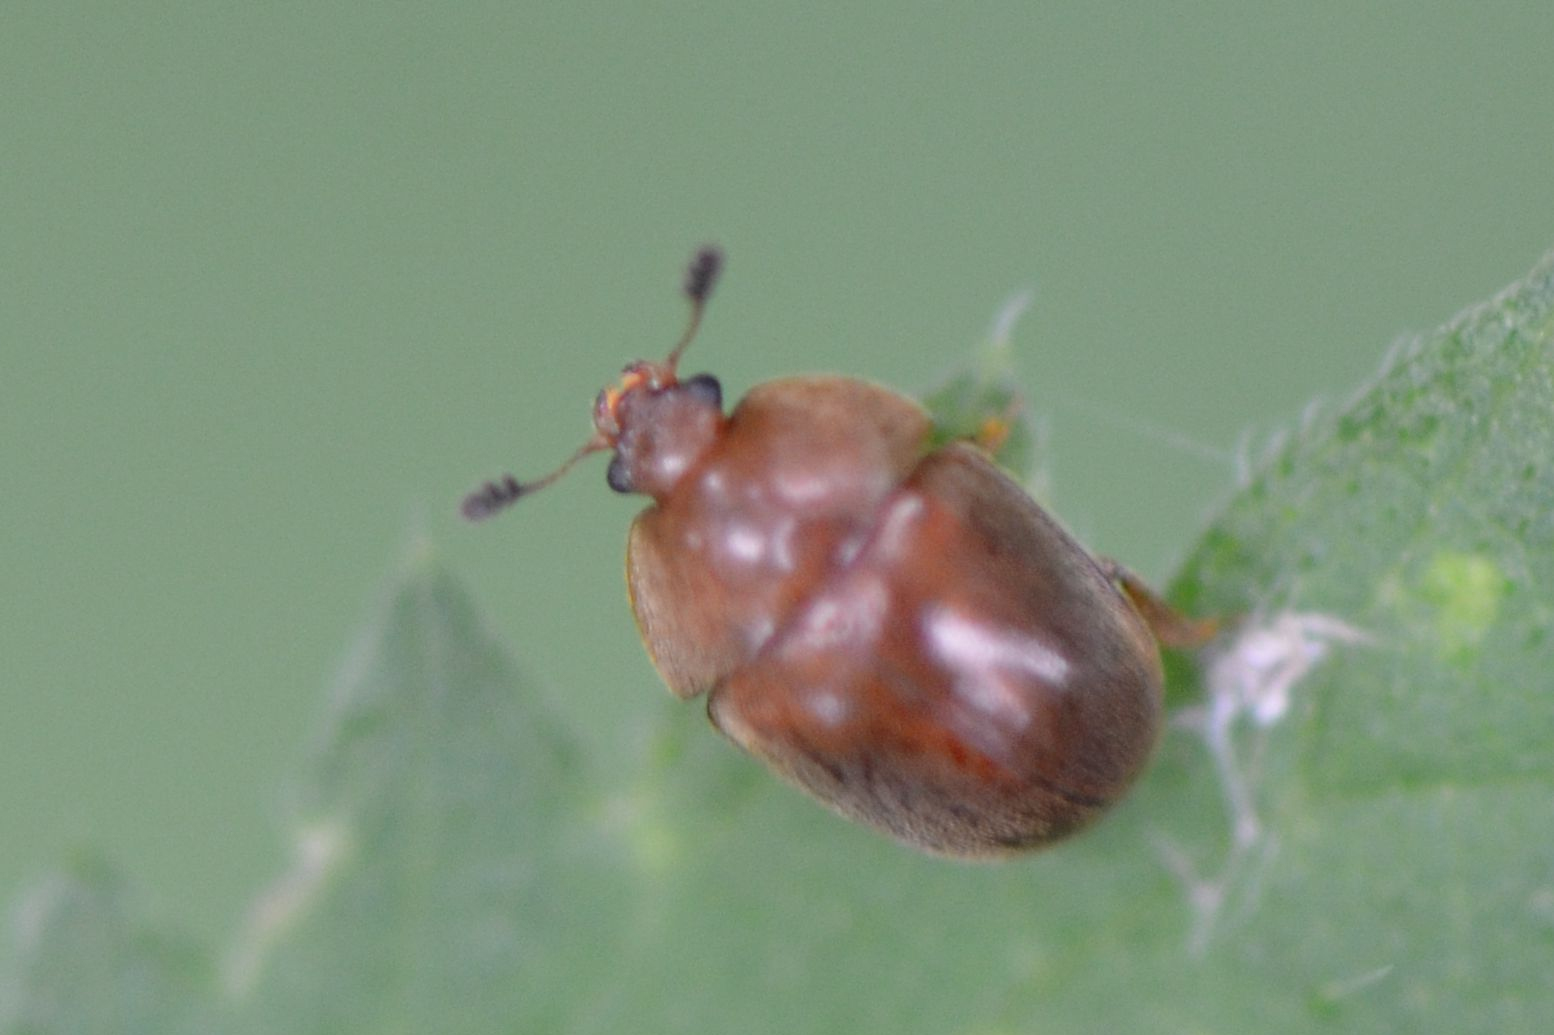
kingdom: Animalia
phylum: Arthropoda
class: Insecta
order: Coleoptera
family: Nitidulidae
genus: Cychramus
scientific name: Cychramus luteus
